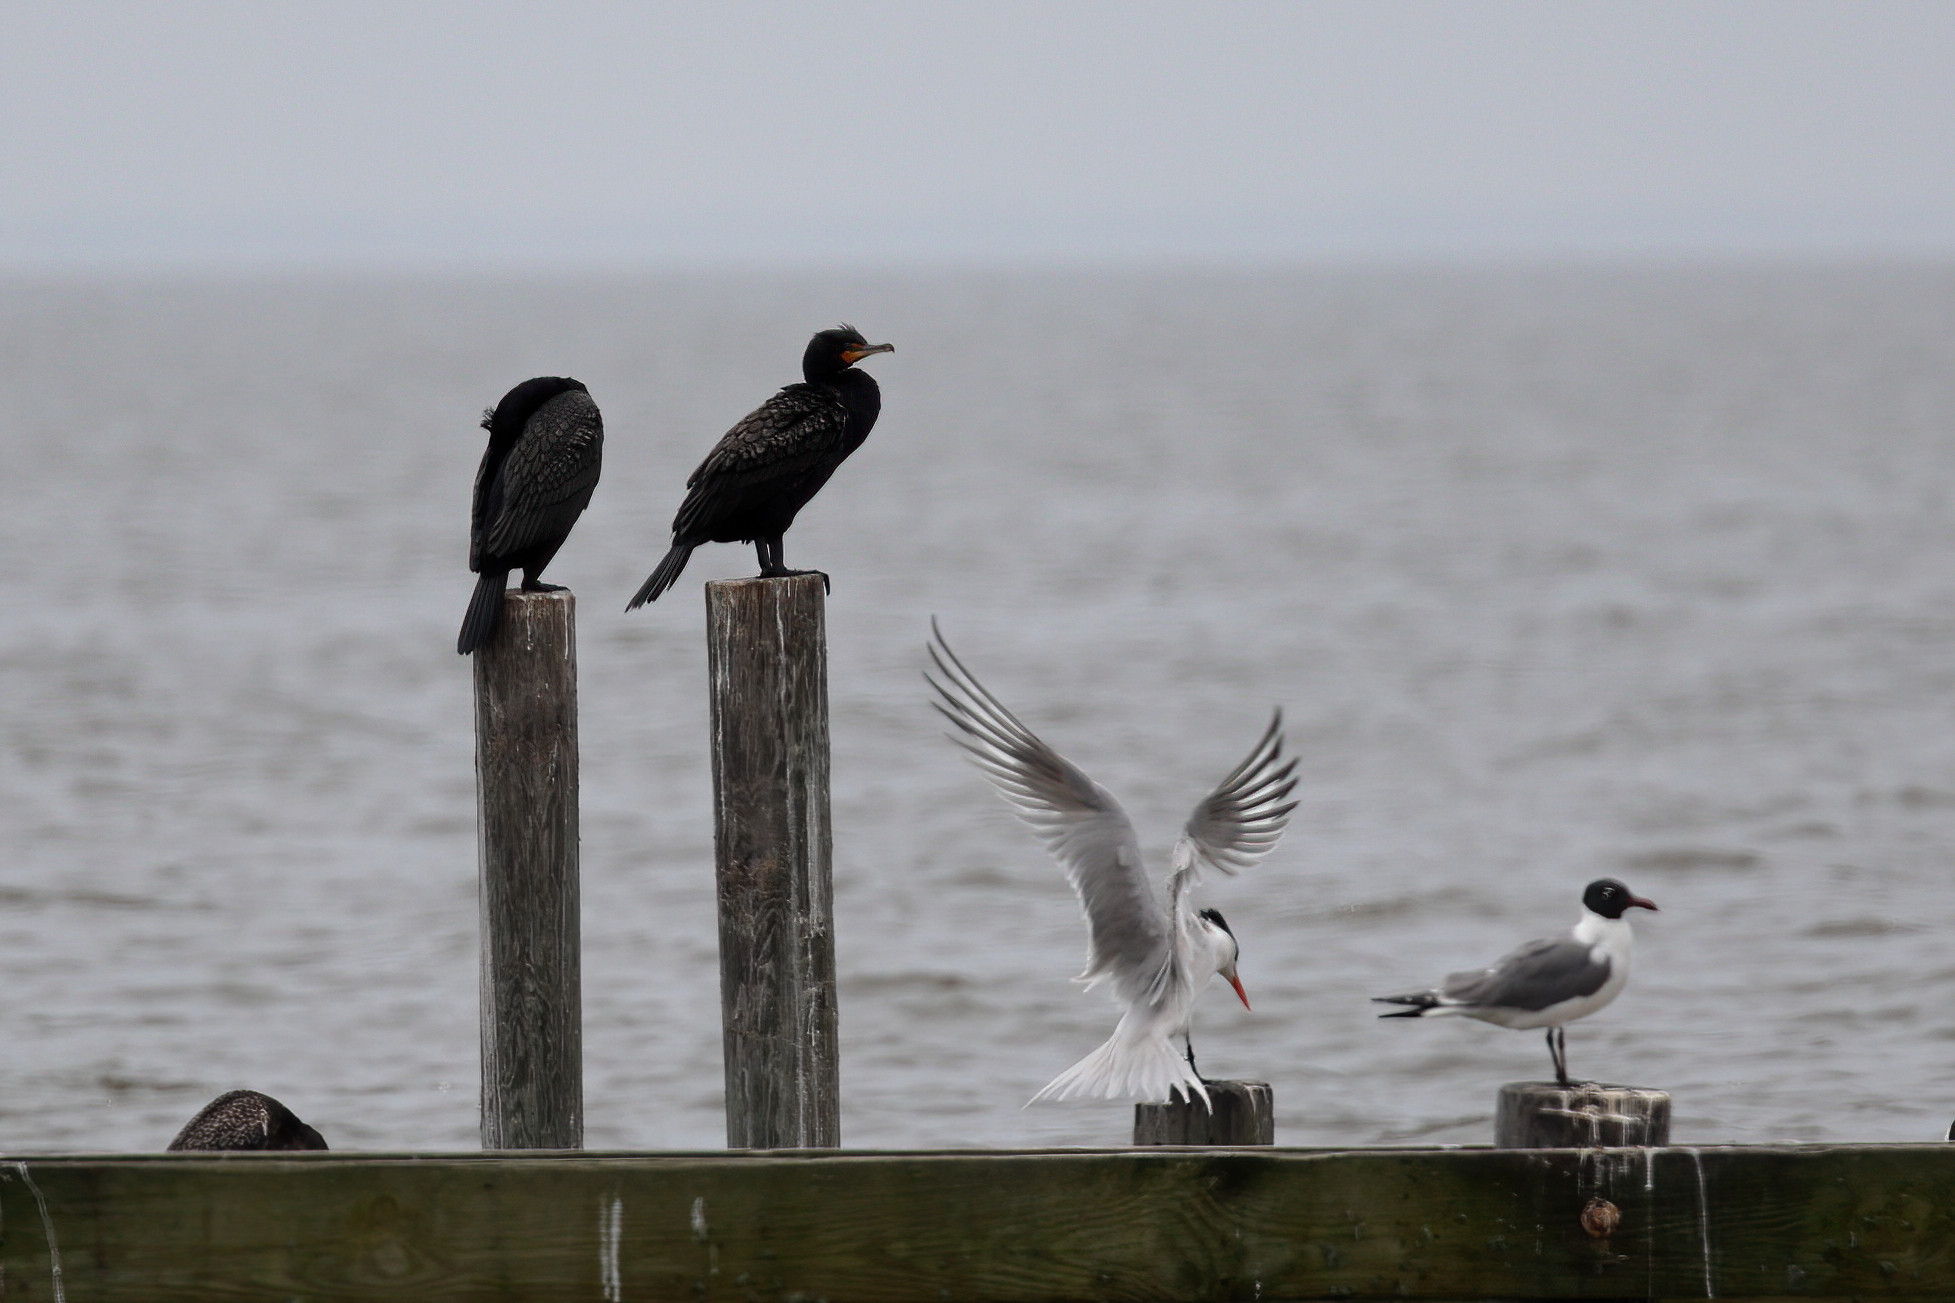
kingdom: Animalia
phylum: Chordata
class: Aves
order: Suliformes
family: Phalacrocoracidae
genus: Phalacrocorax
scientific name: Phalacrocorax auritus
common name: Double-crested cormorant
